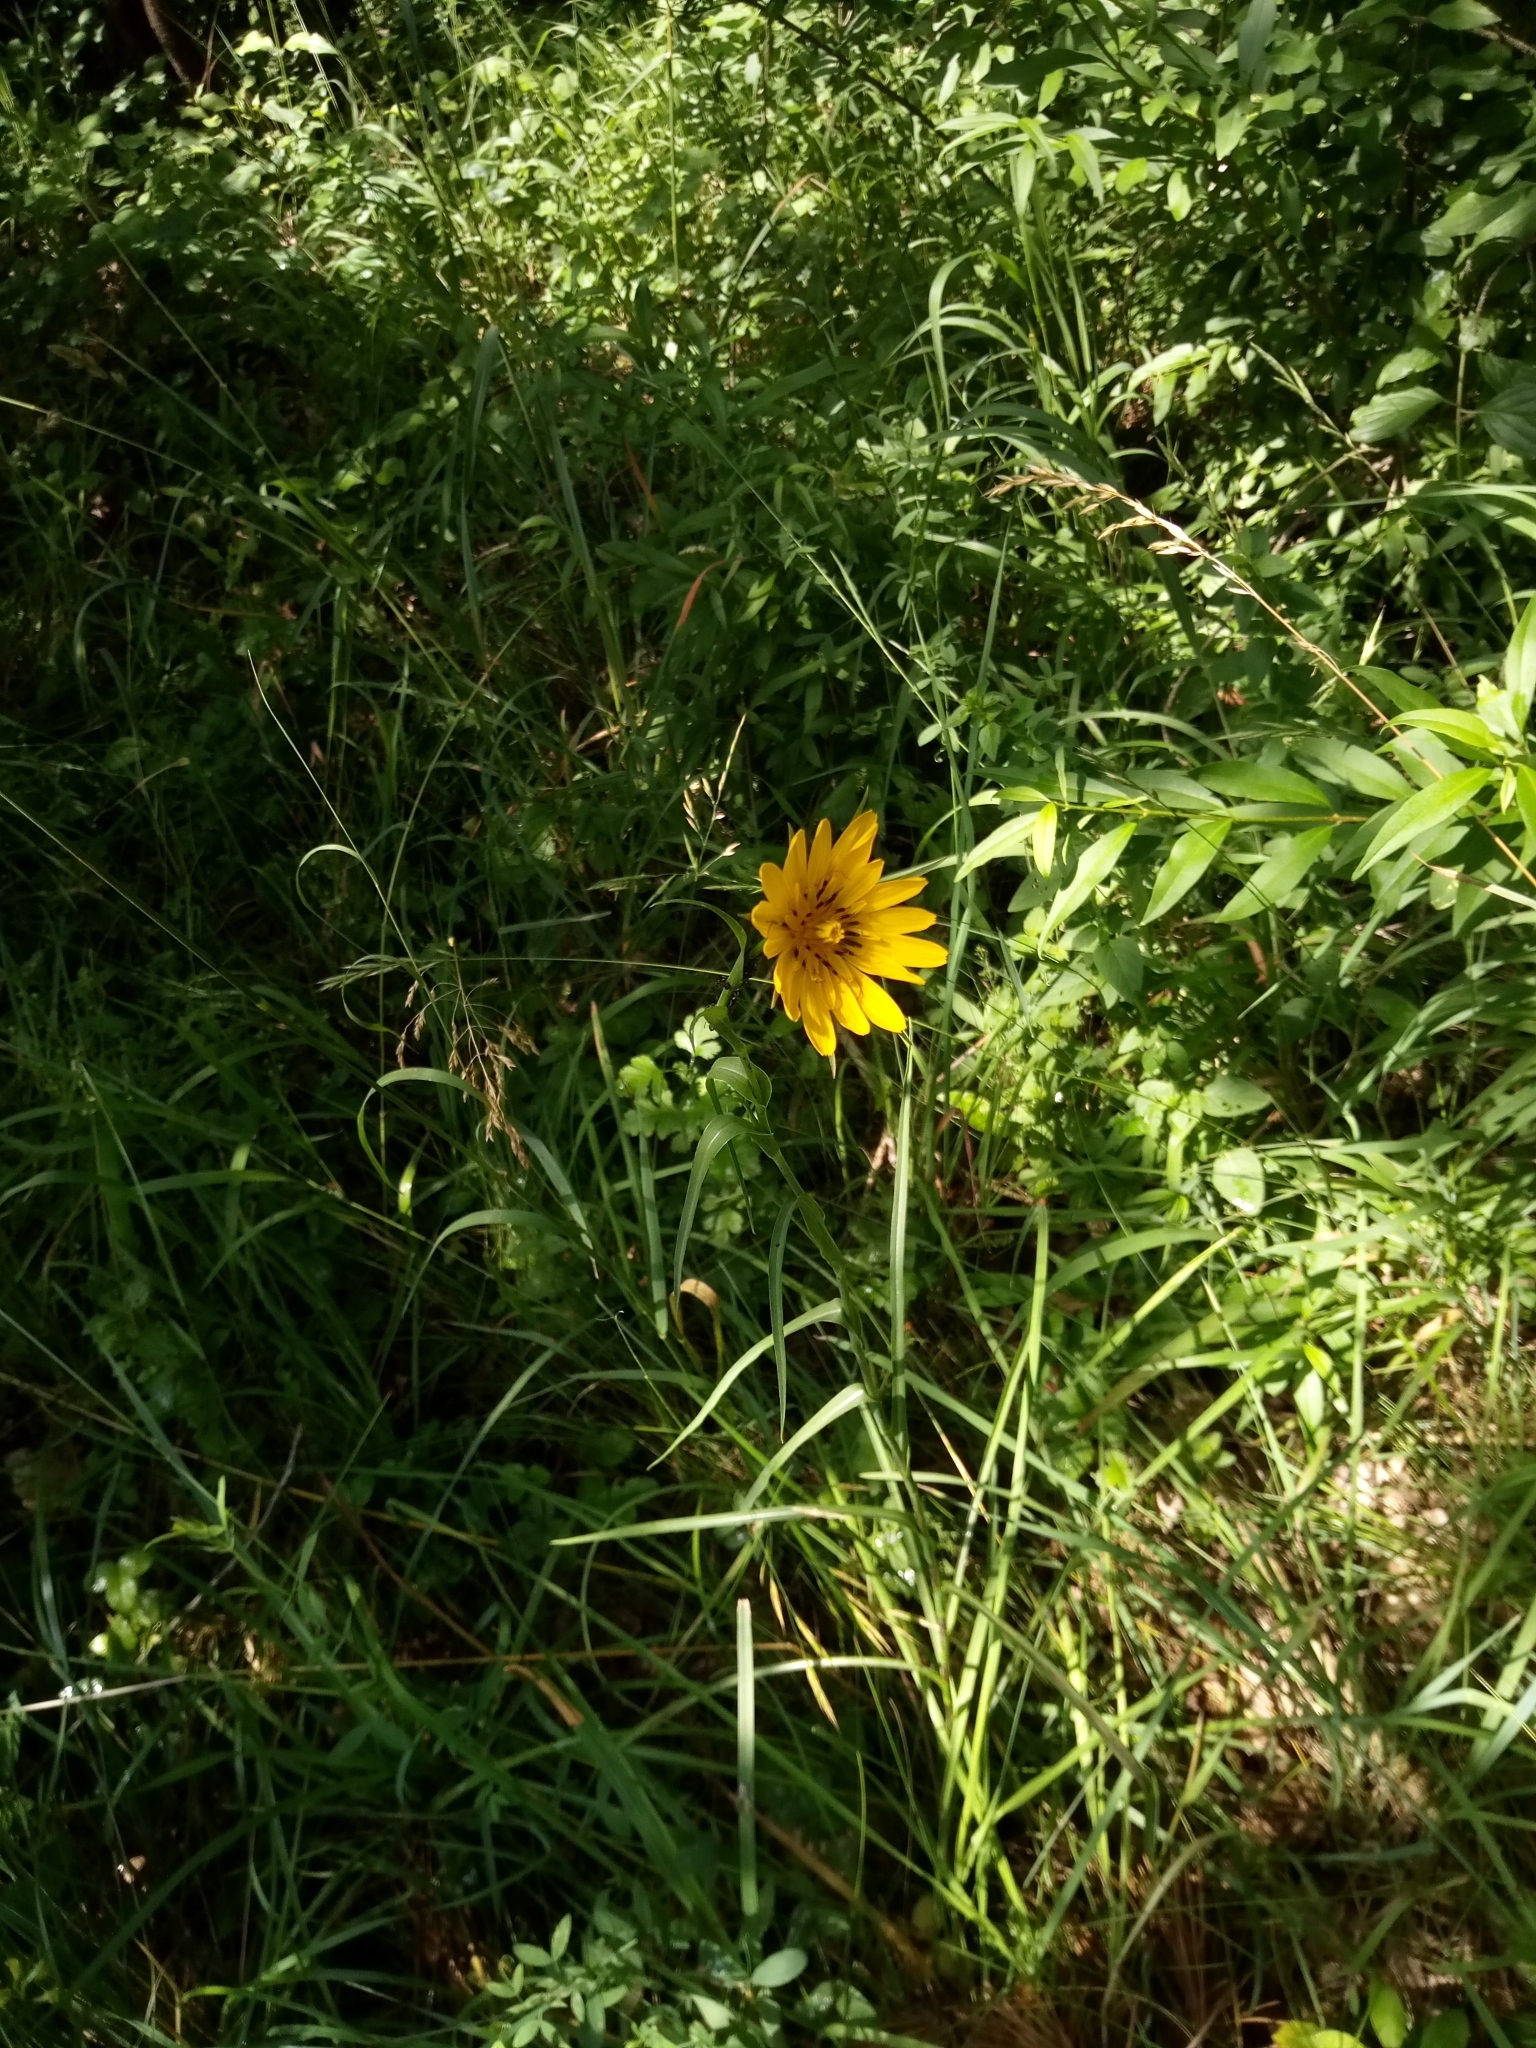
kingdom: Plantae
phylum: Tracheophyta
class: Magnoliopsida
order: Asterales
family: Asteraceae
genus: Tragopogon
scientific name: Tragopogon orientalis
